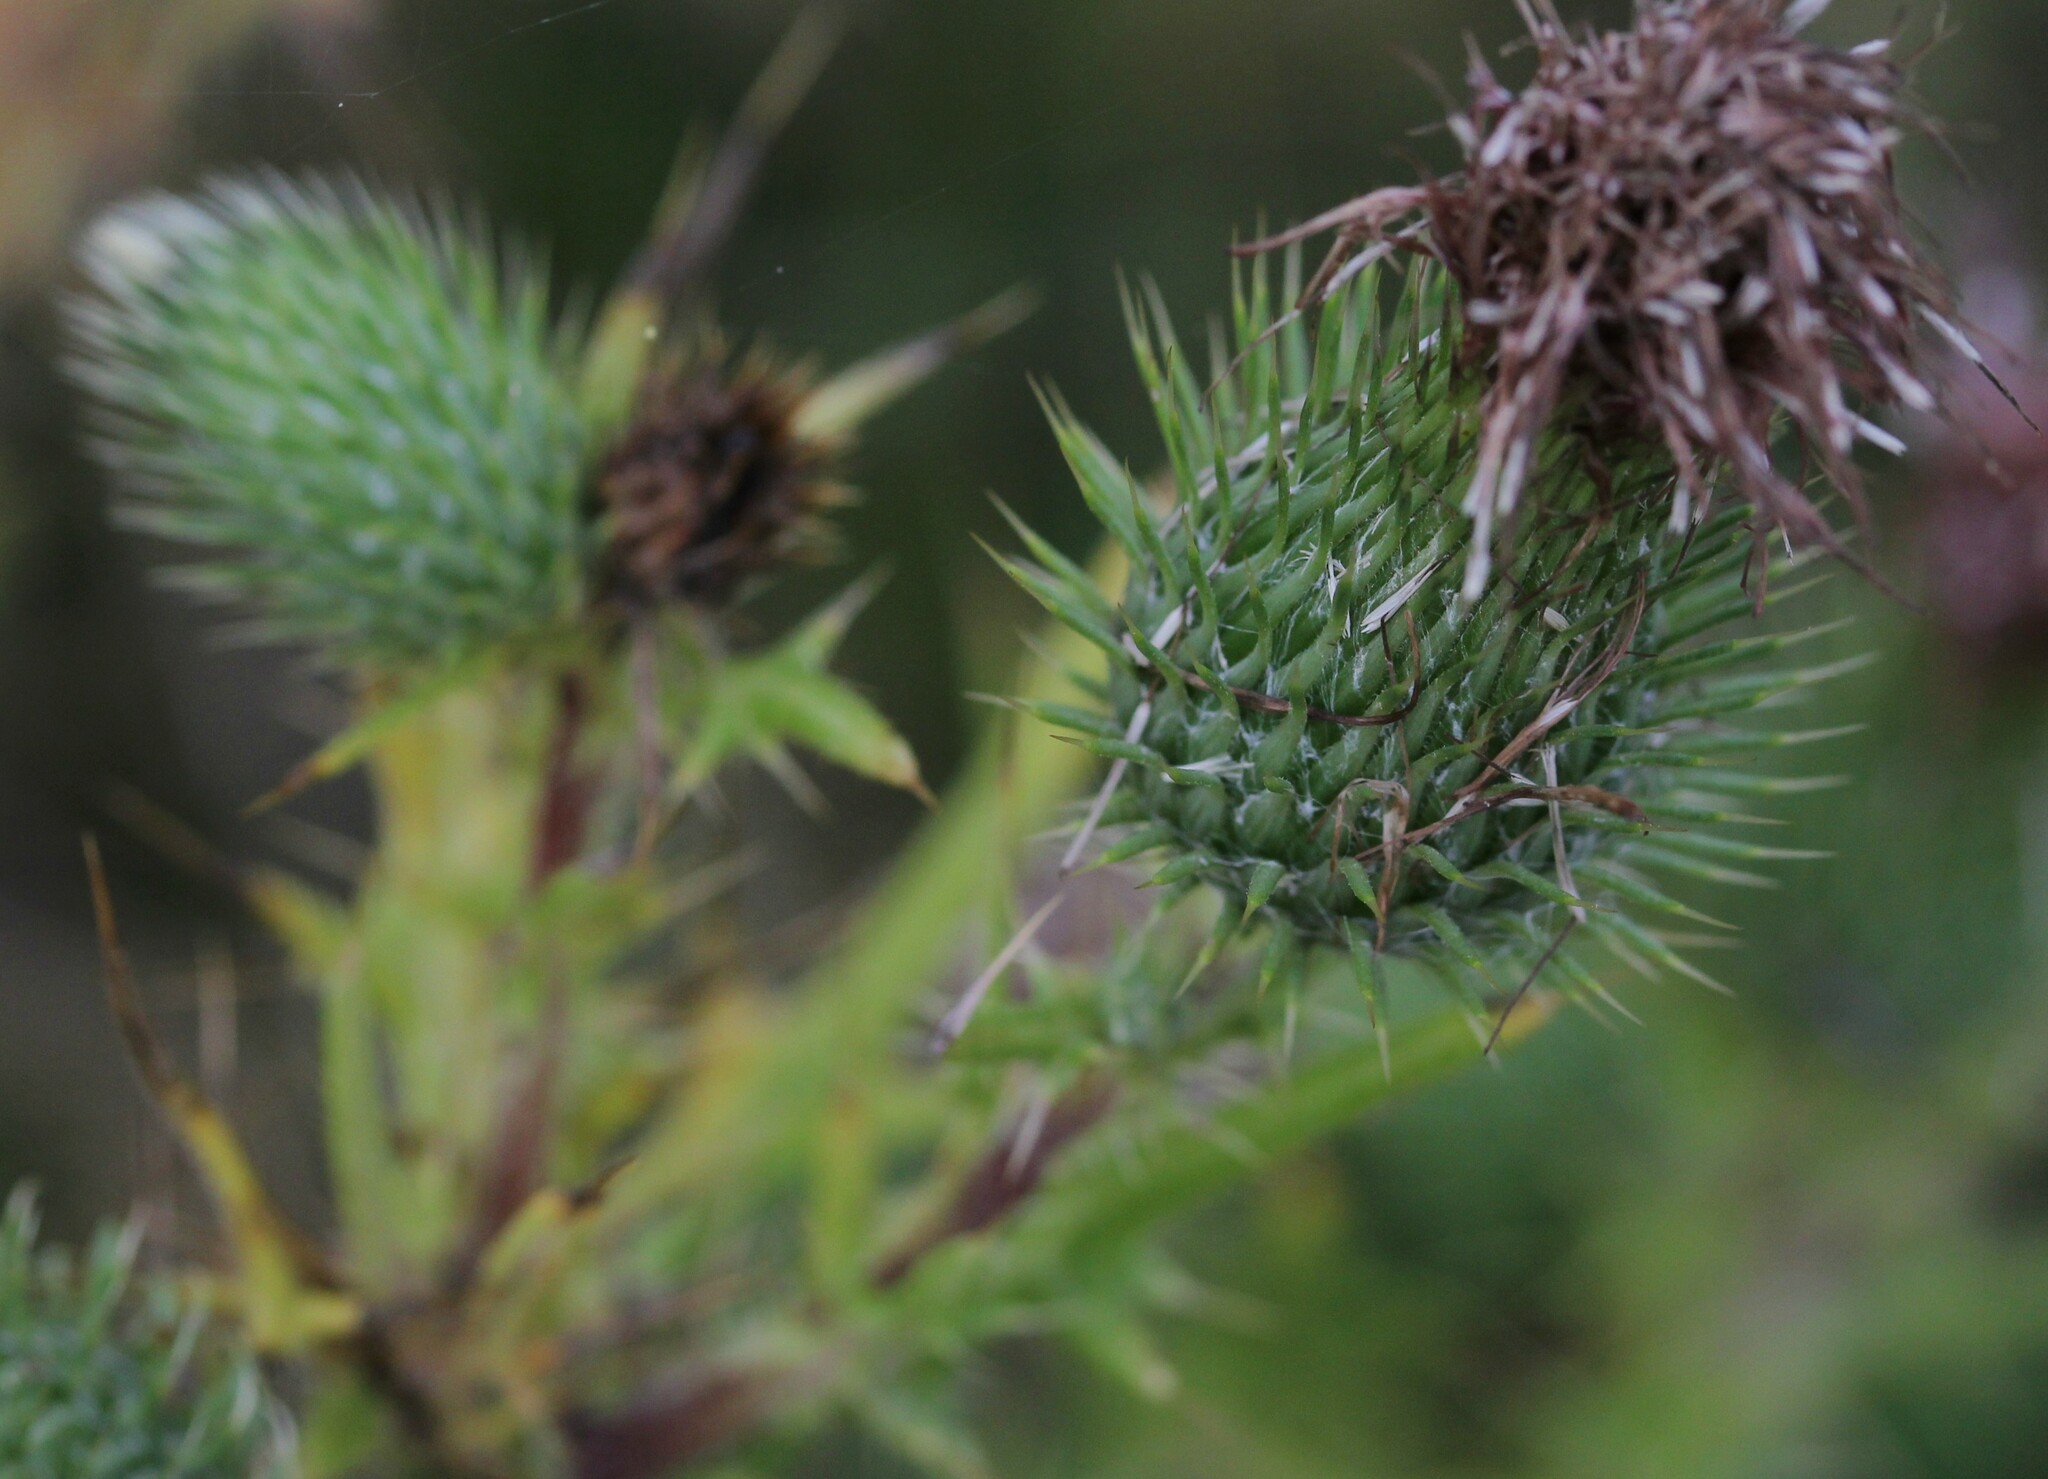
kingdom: Plantae
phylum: Tracheophyta
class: Magnoliopsida
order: Asterales
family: Asteraceae
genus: Cirsium
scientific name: Cirsium vulgare
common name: Bull thistle
